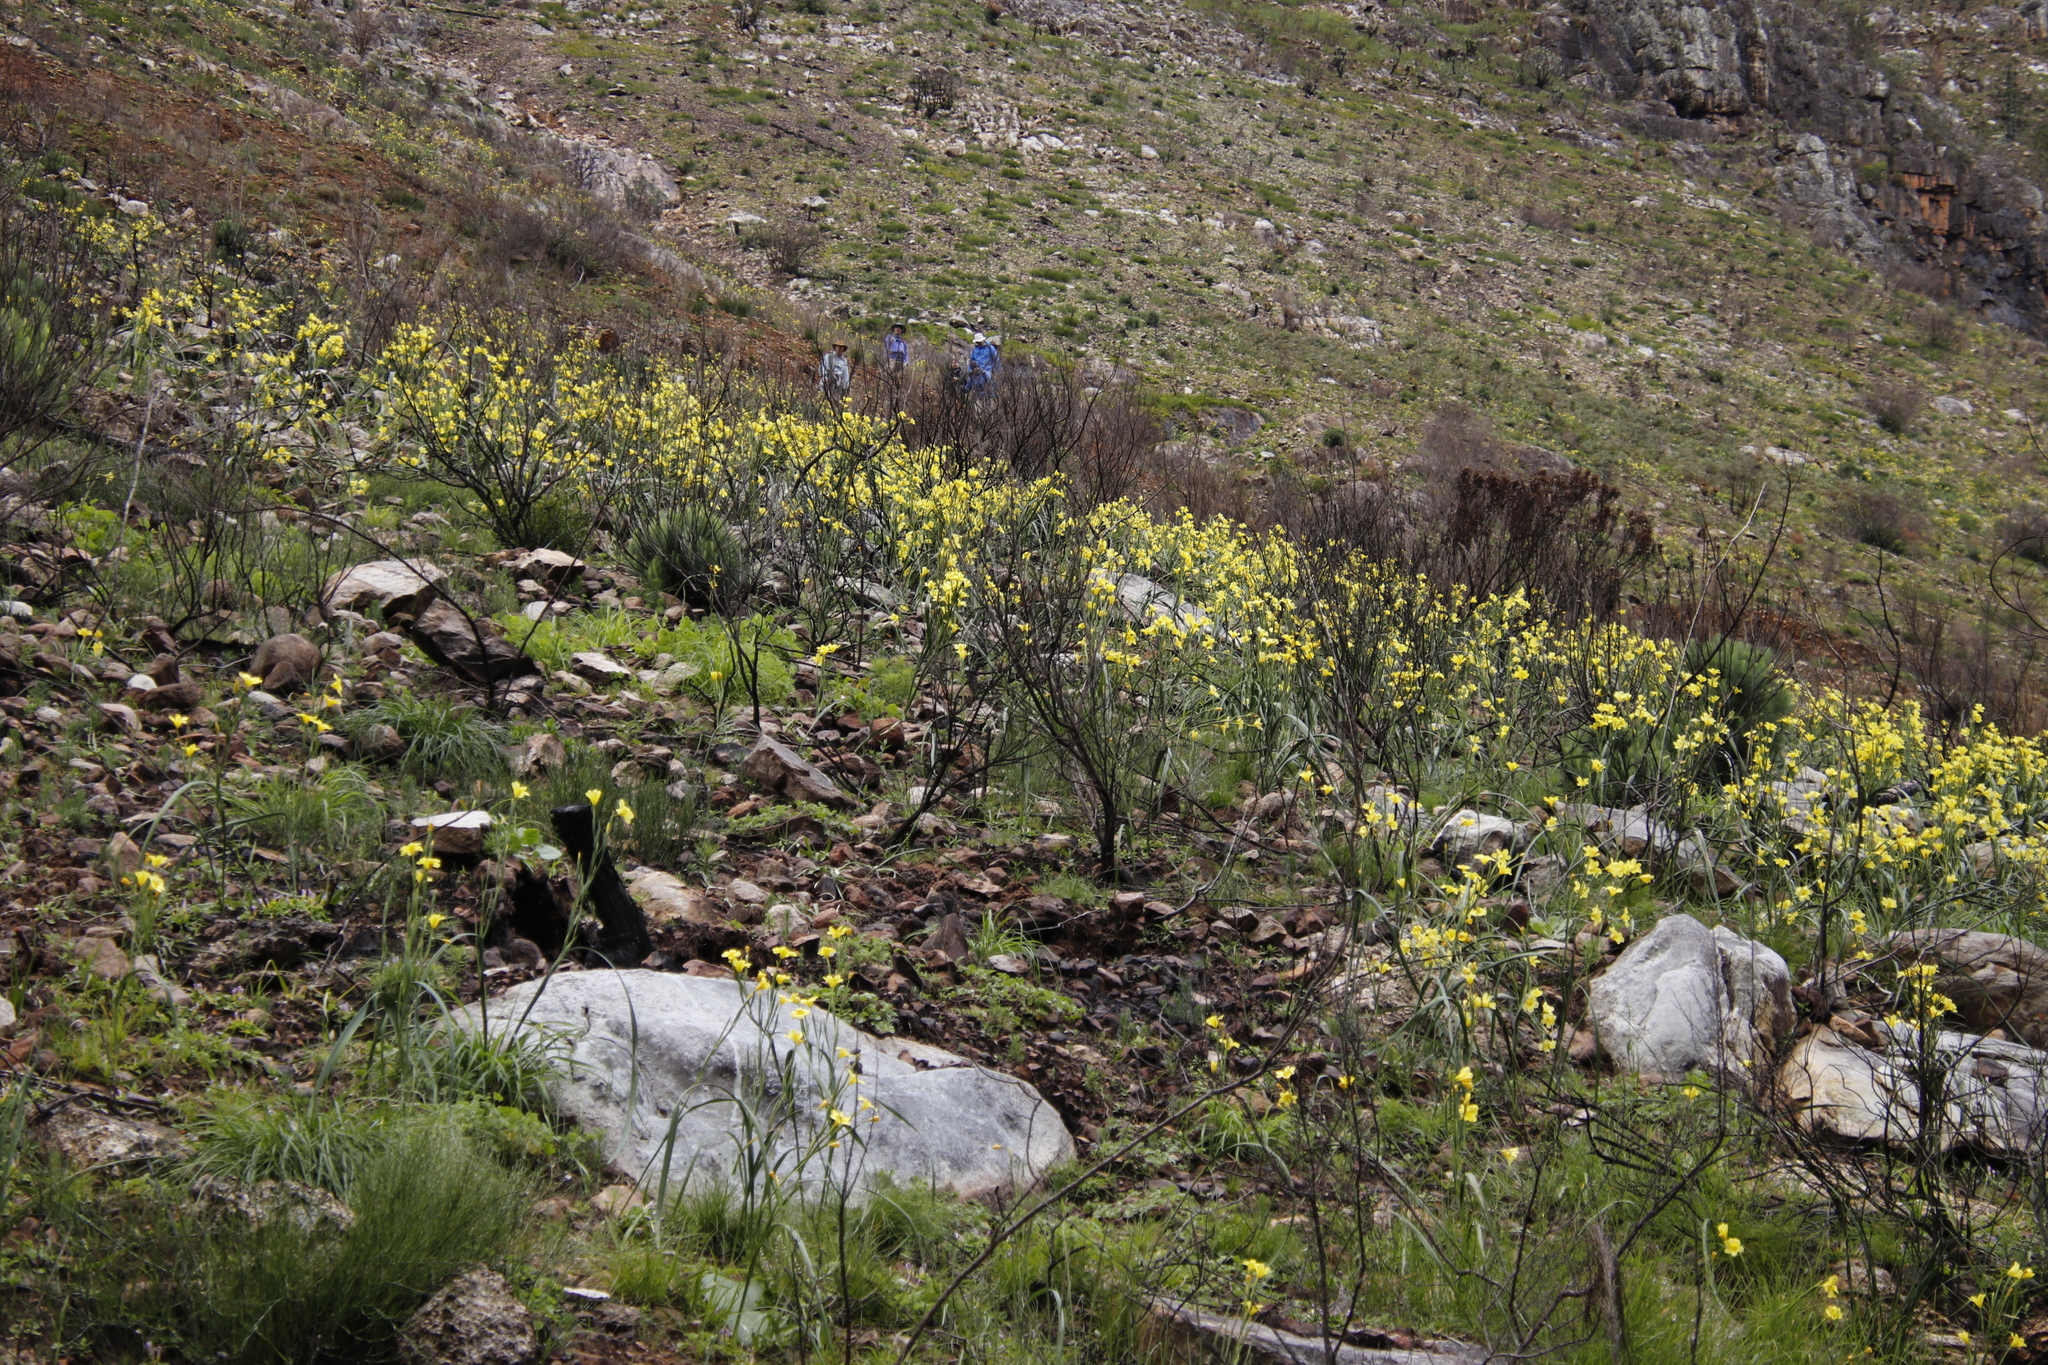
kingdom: Plantae
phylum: Tracheophyta
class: Liliopsida
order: Asparagales
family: Iridaceae
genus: Moraea
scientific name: Moraea ochroleuca
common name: Red tulp
